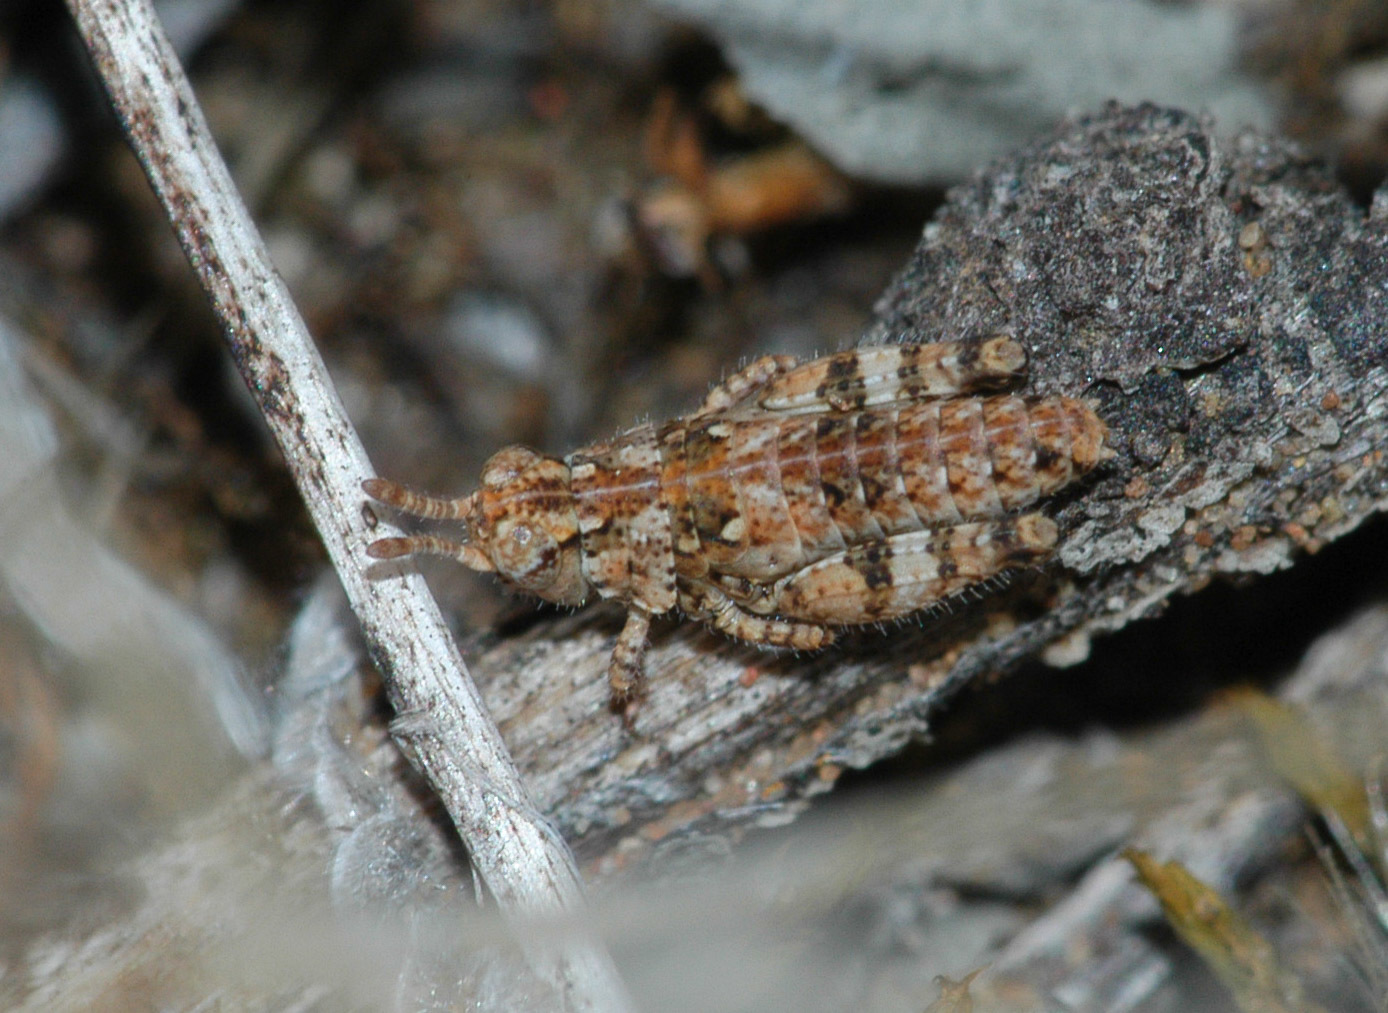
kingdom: Animalia
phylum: Arthropoda
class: Insecta
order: Orthoptera
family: Acrididae
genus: Pycnostictus
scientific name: Pycnostictus seriatus
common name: Common bandwing
